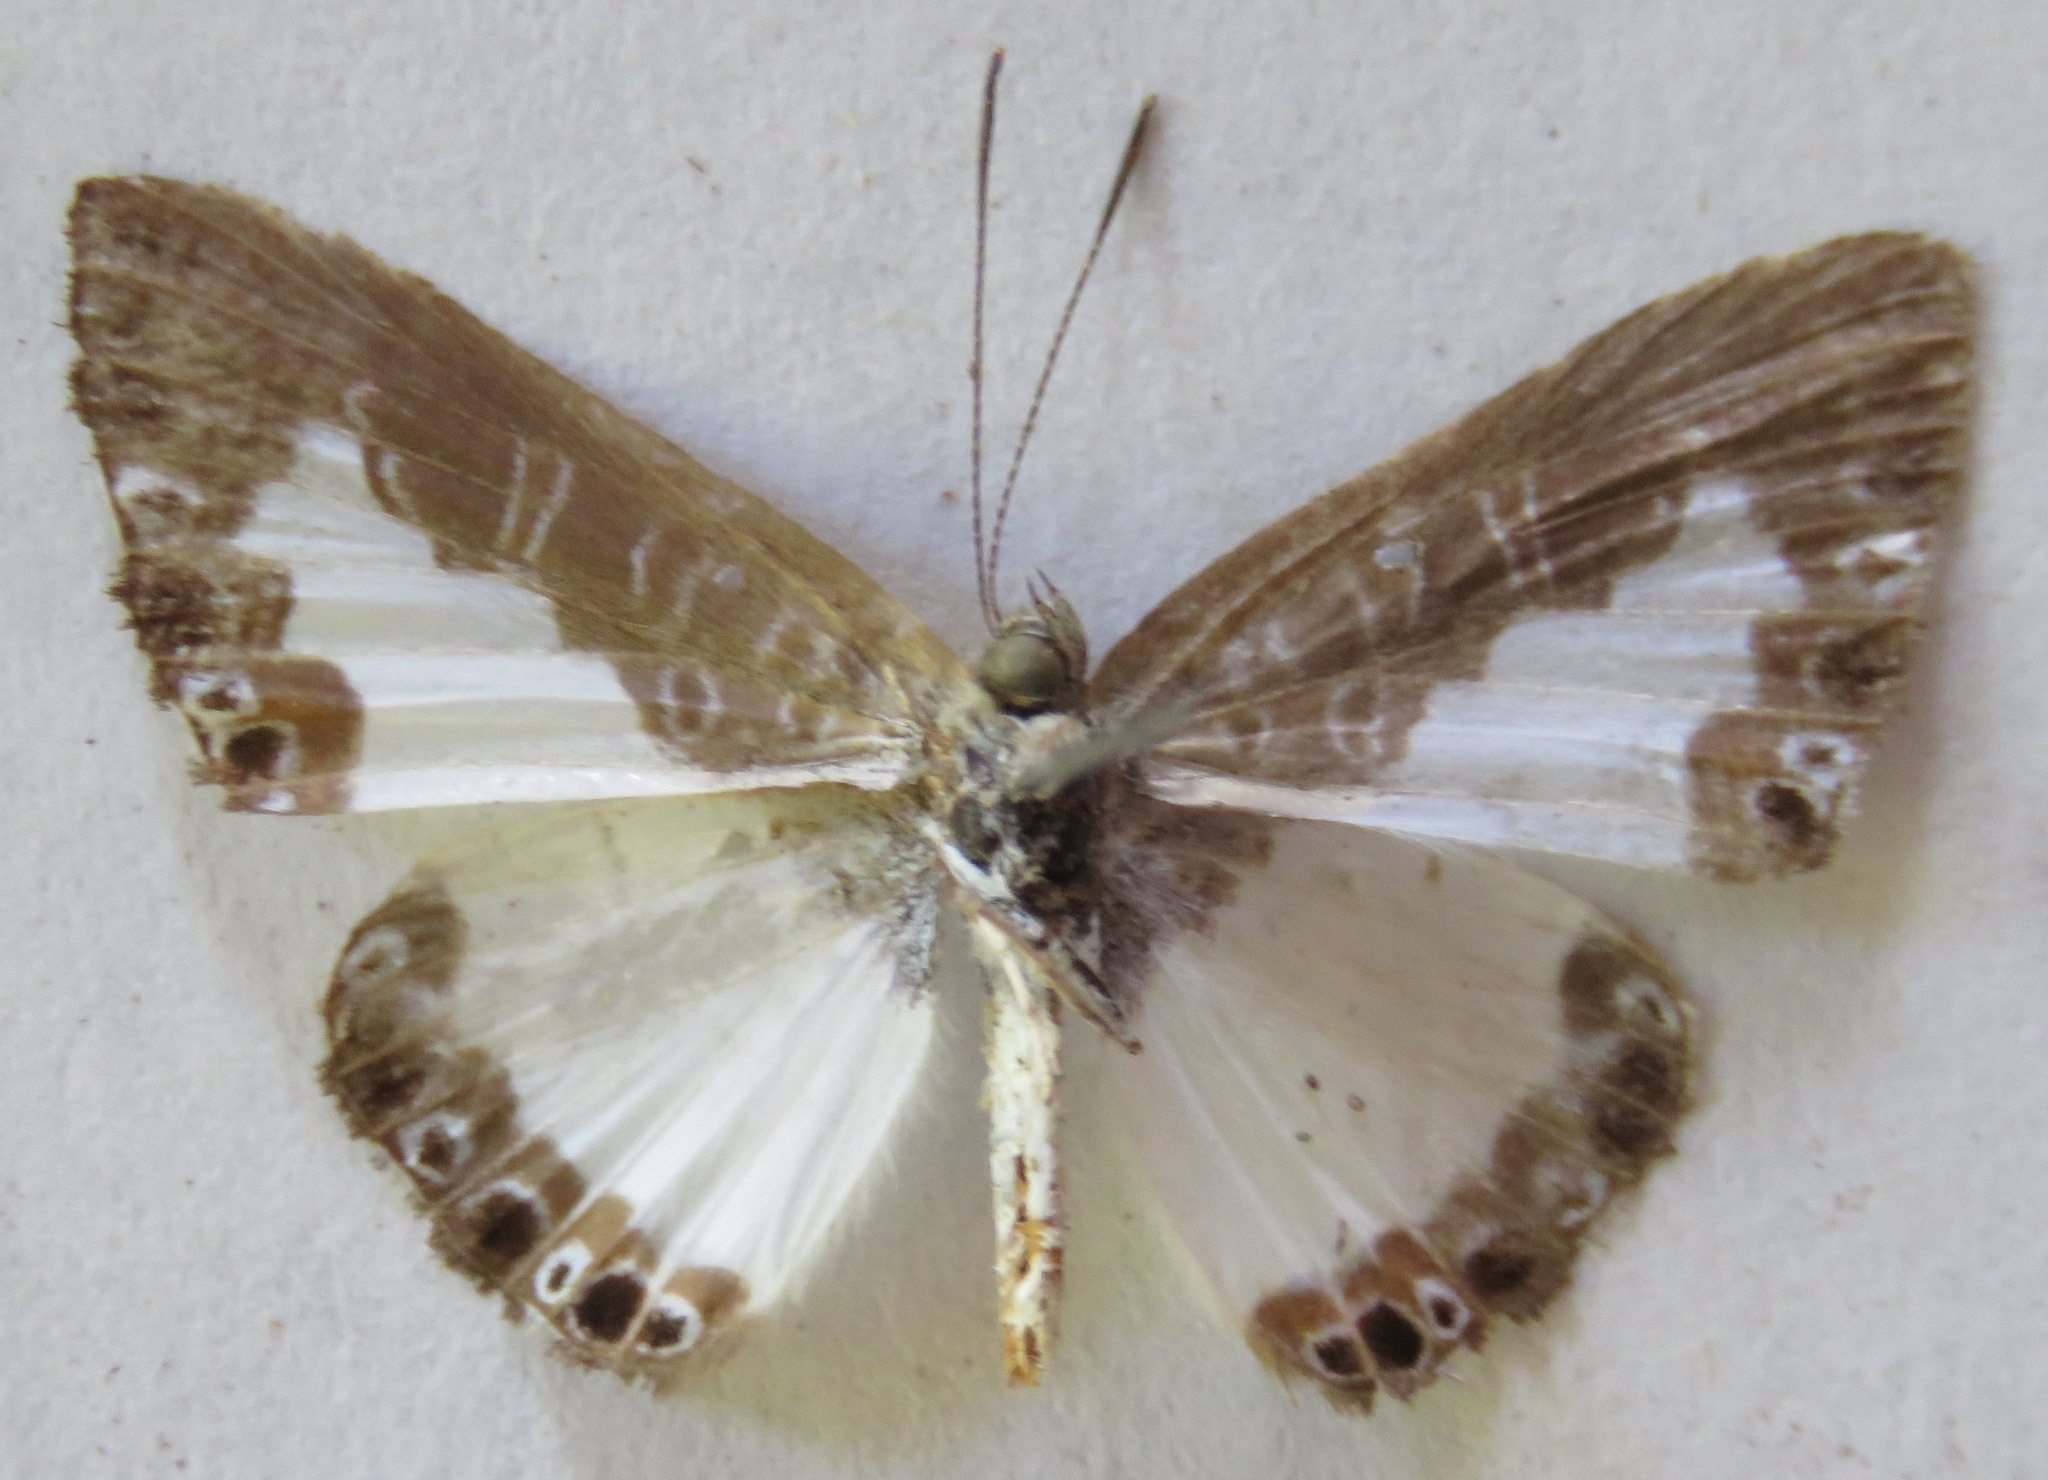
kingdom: Animalia
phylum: Arthropoda
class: Insecta
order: Lepidoptera
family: Riodinidae
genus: Juditha
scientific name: Juditha caucana
